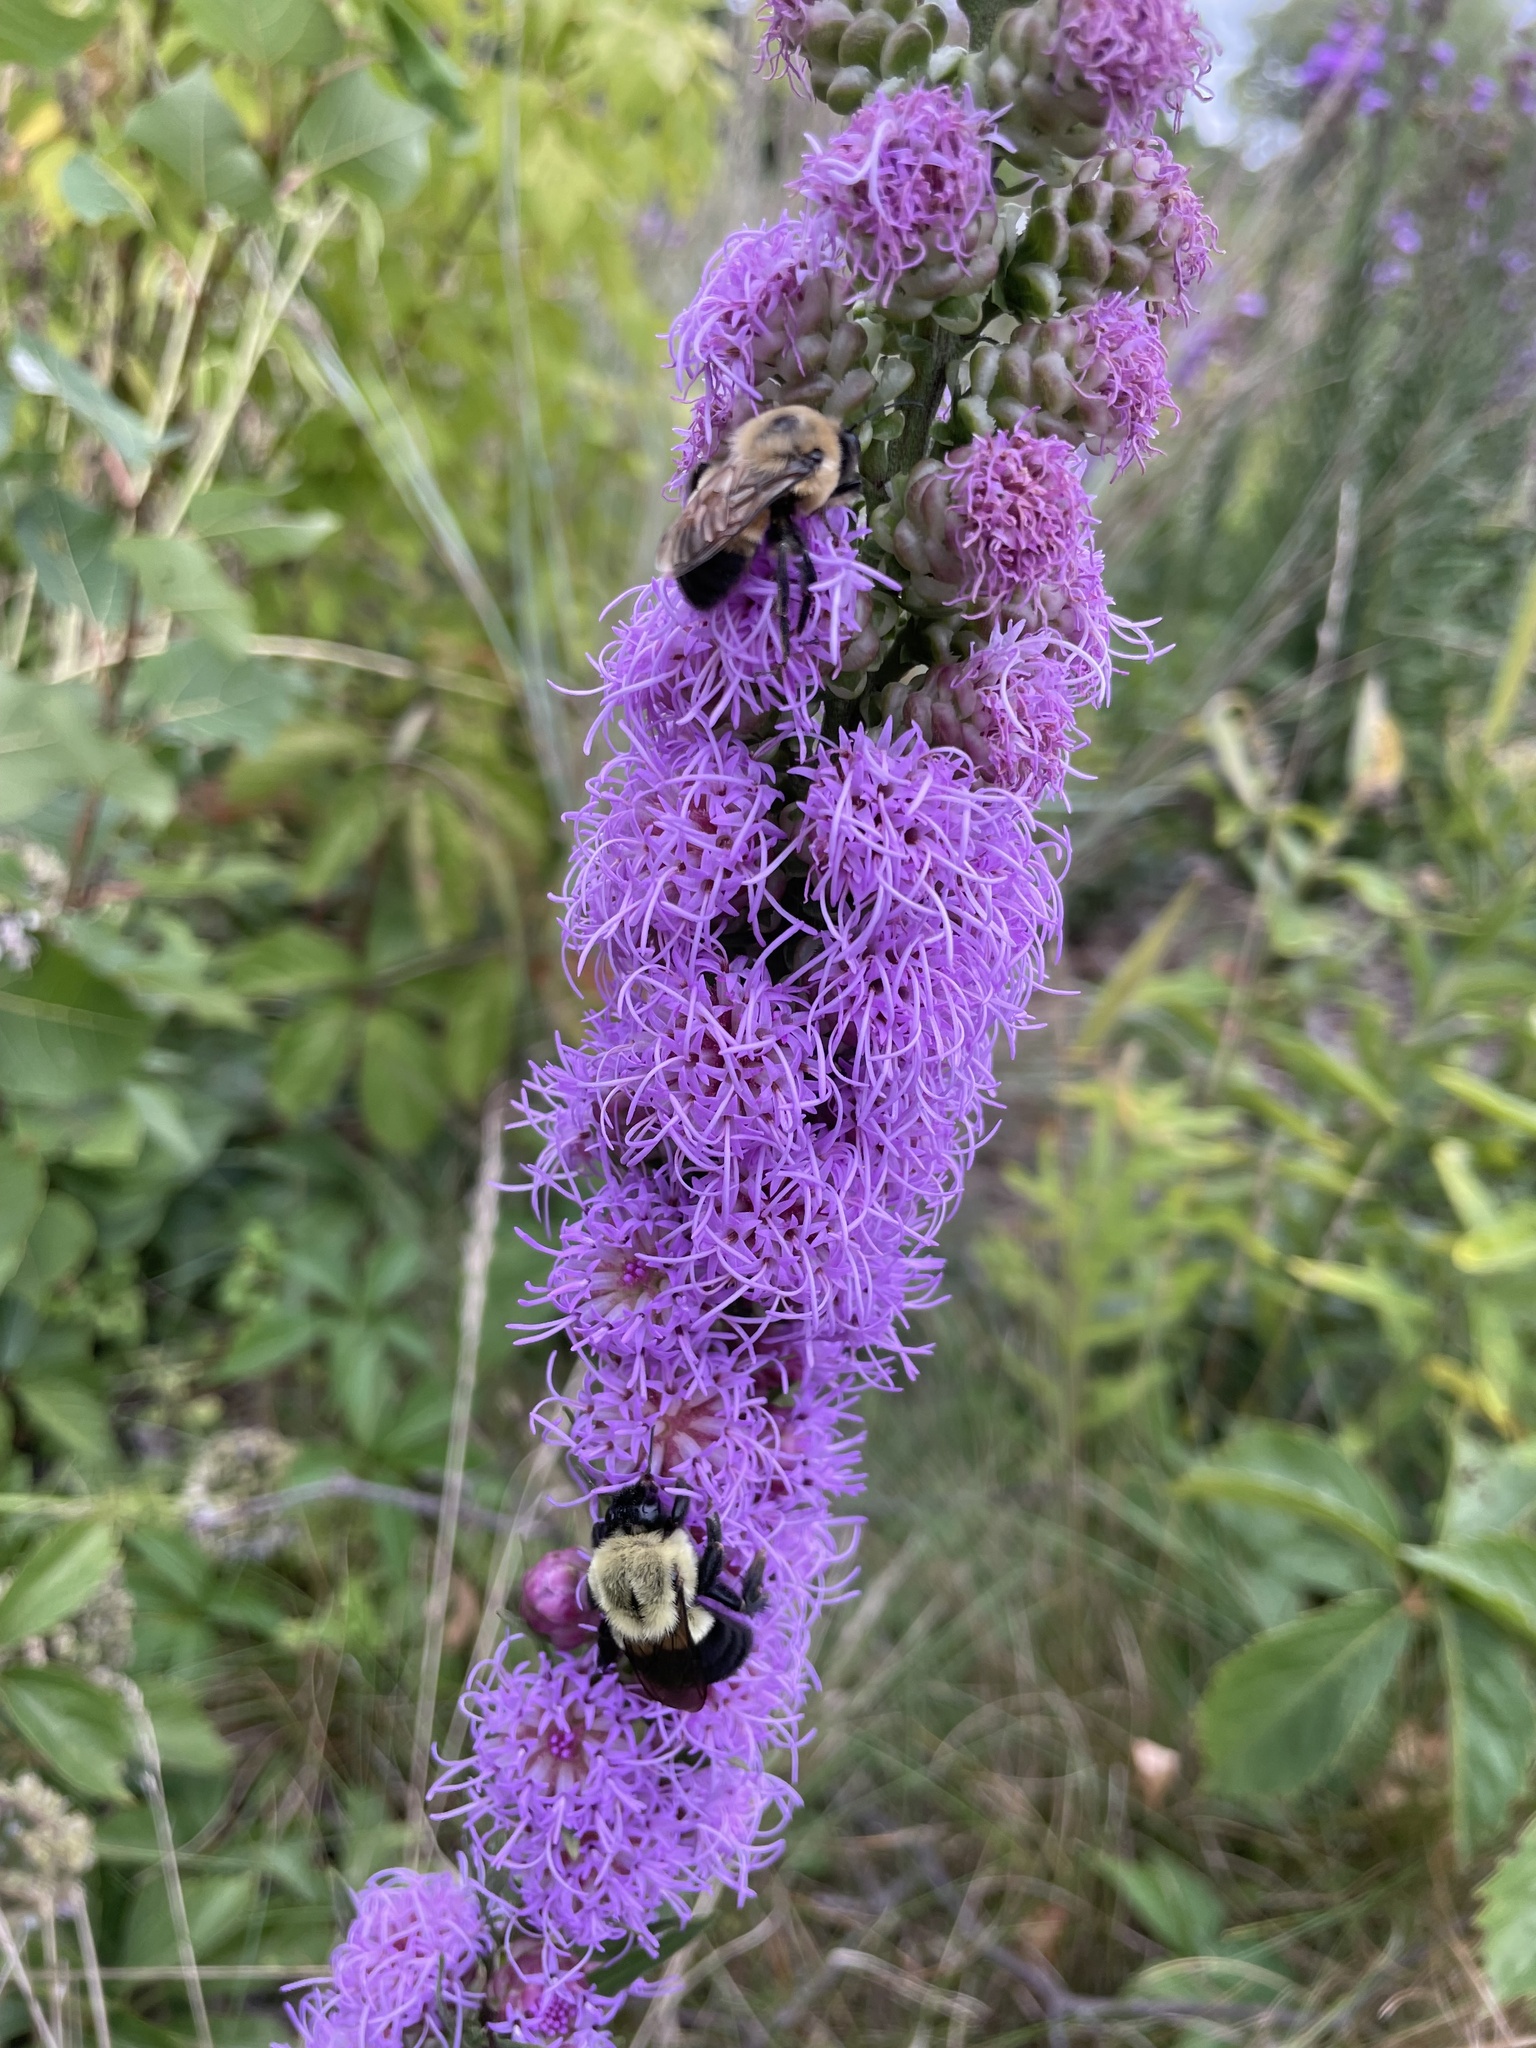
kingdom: Animalia
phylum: Arthropoda
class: Insecta
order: Hymenoptera
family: Apidae
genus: Bombus
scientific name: Bombus griseocollis
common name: Brown-belted bumble bee
